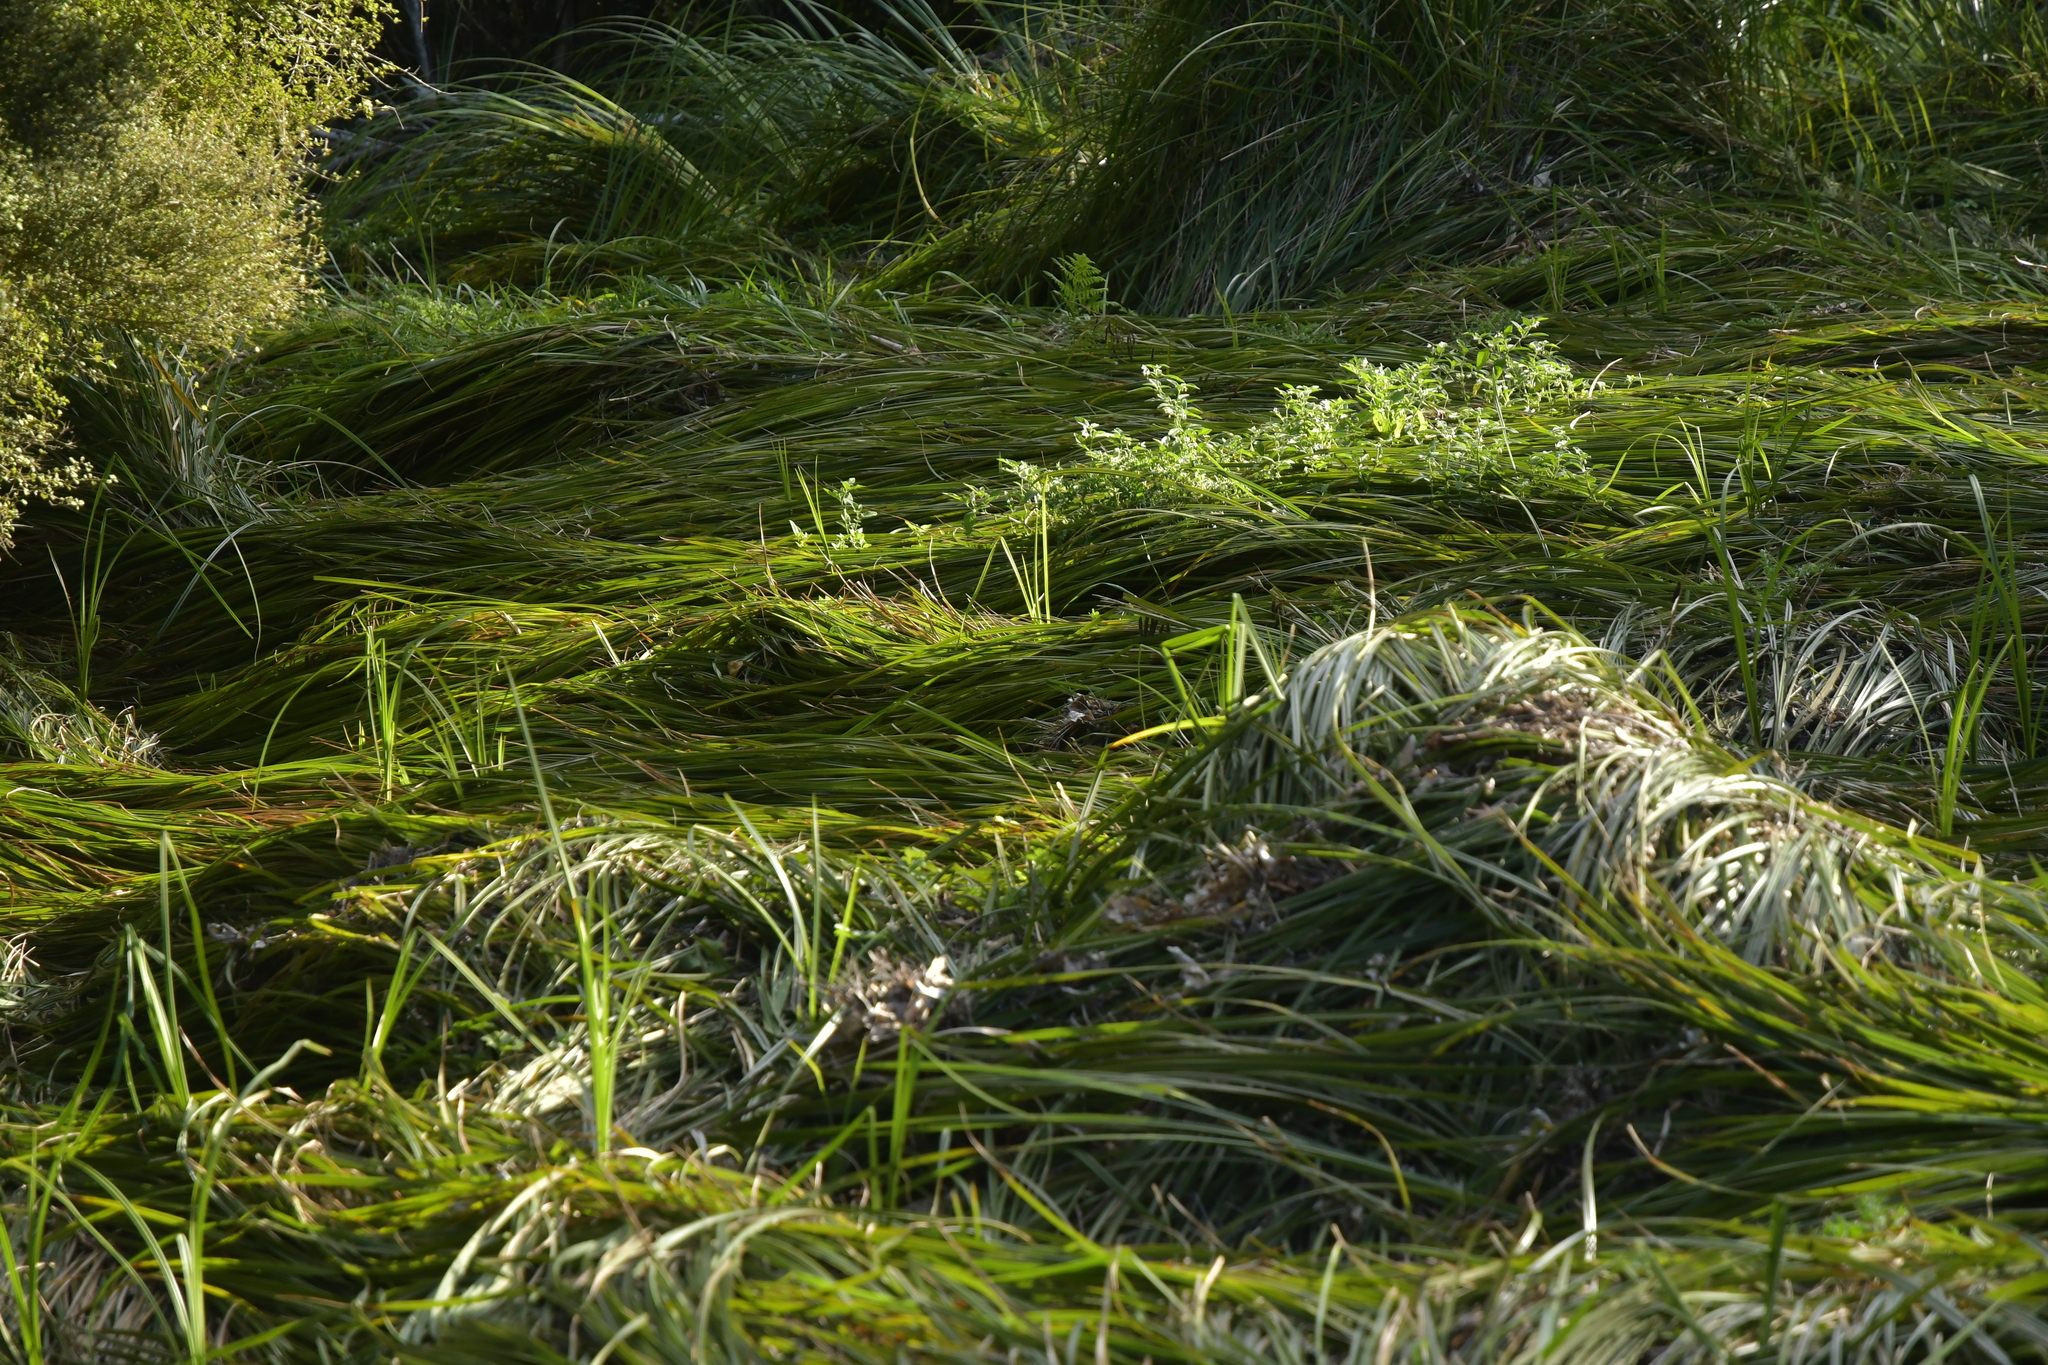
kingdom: Plantae
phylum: Tracheophyta
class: Liliopsida
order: Poales
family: Cyperaceae
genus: Carex
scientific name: Carex geminata
